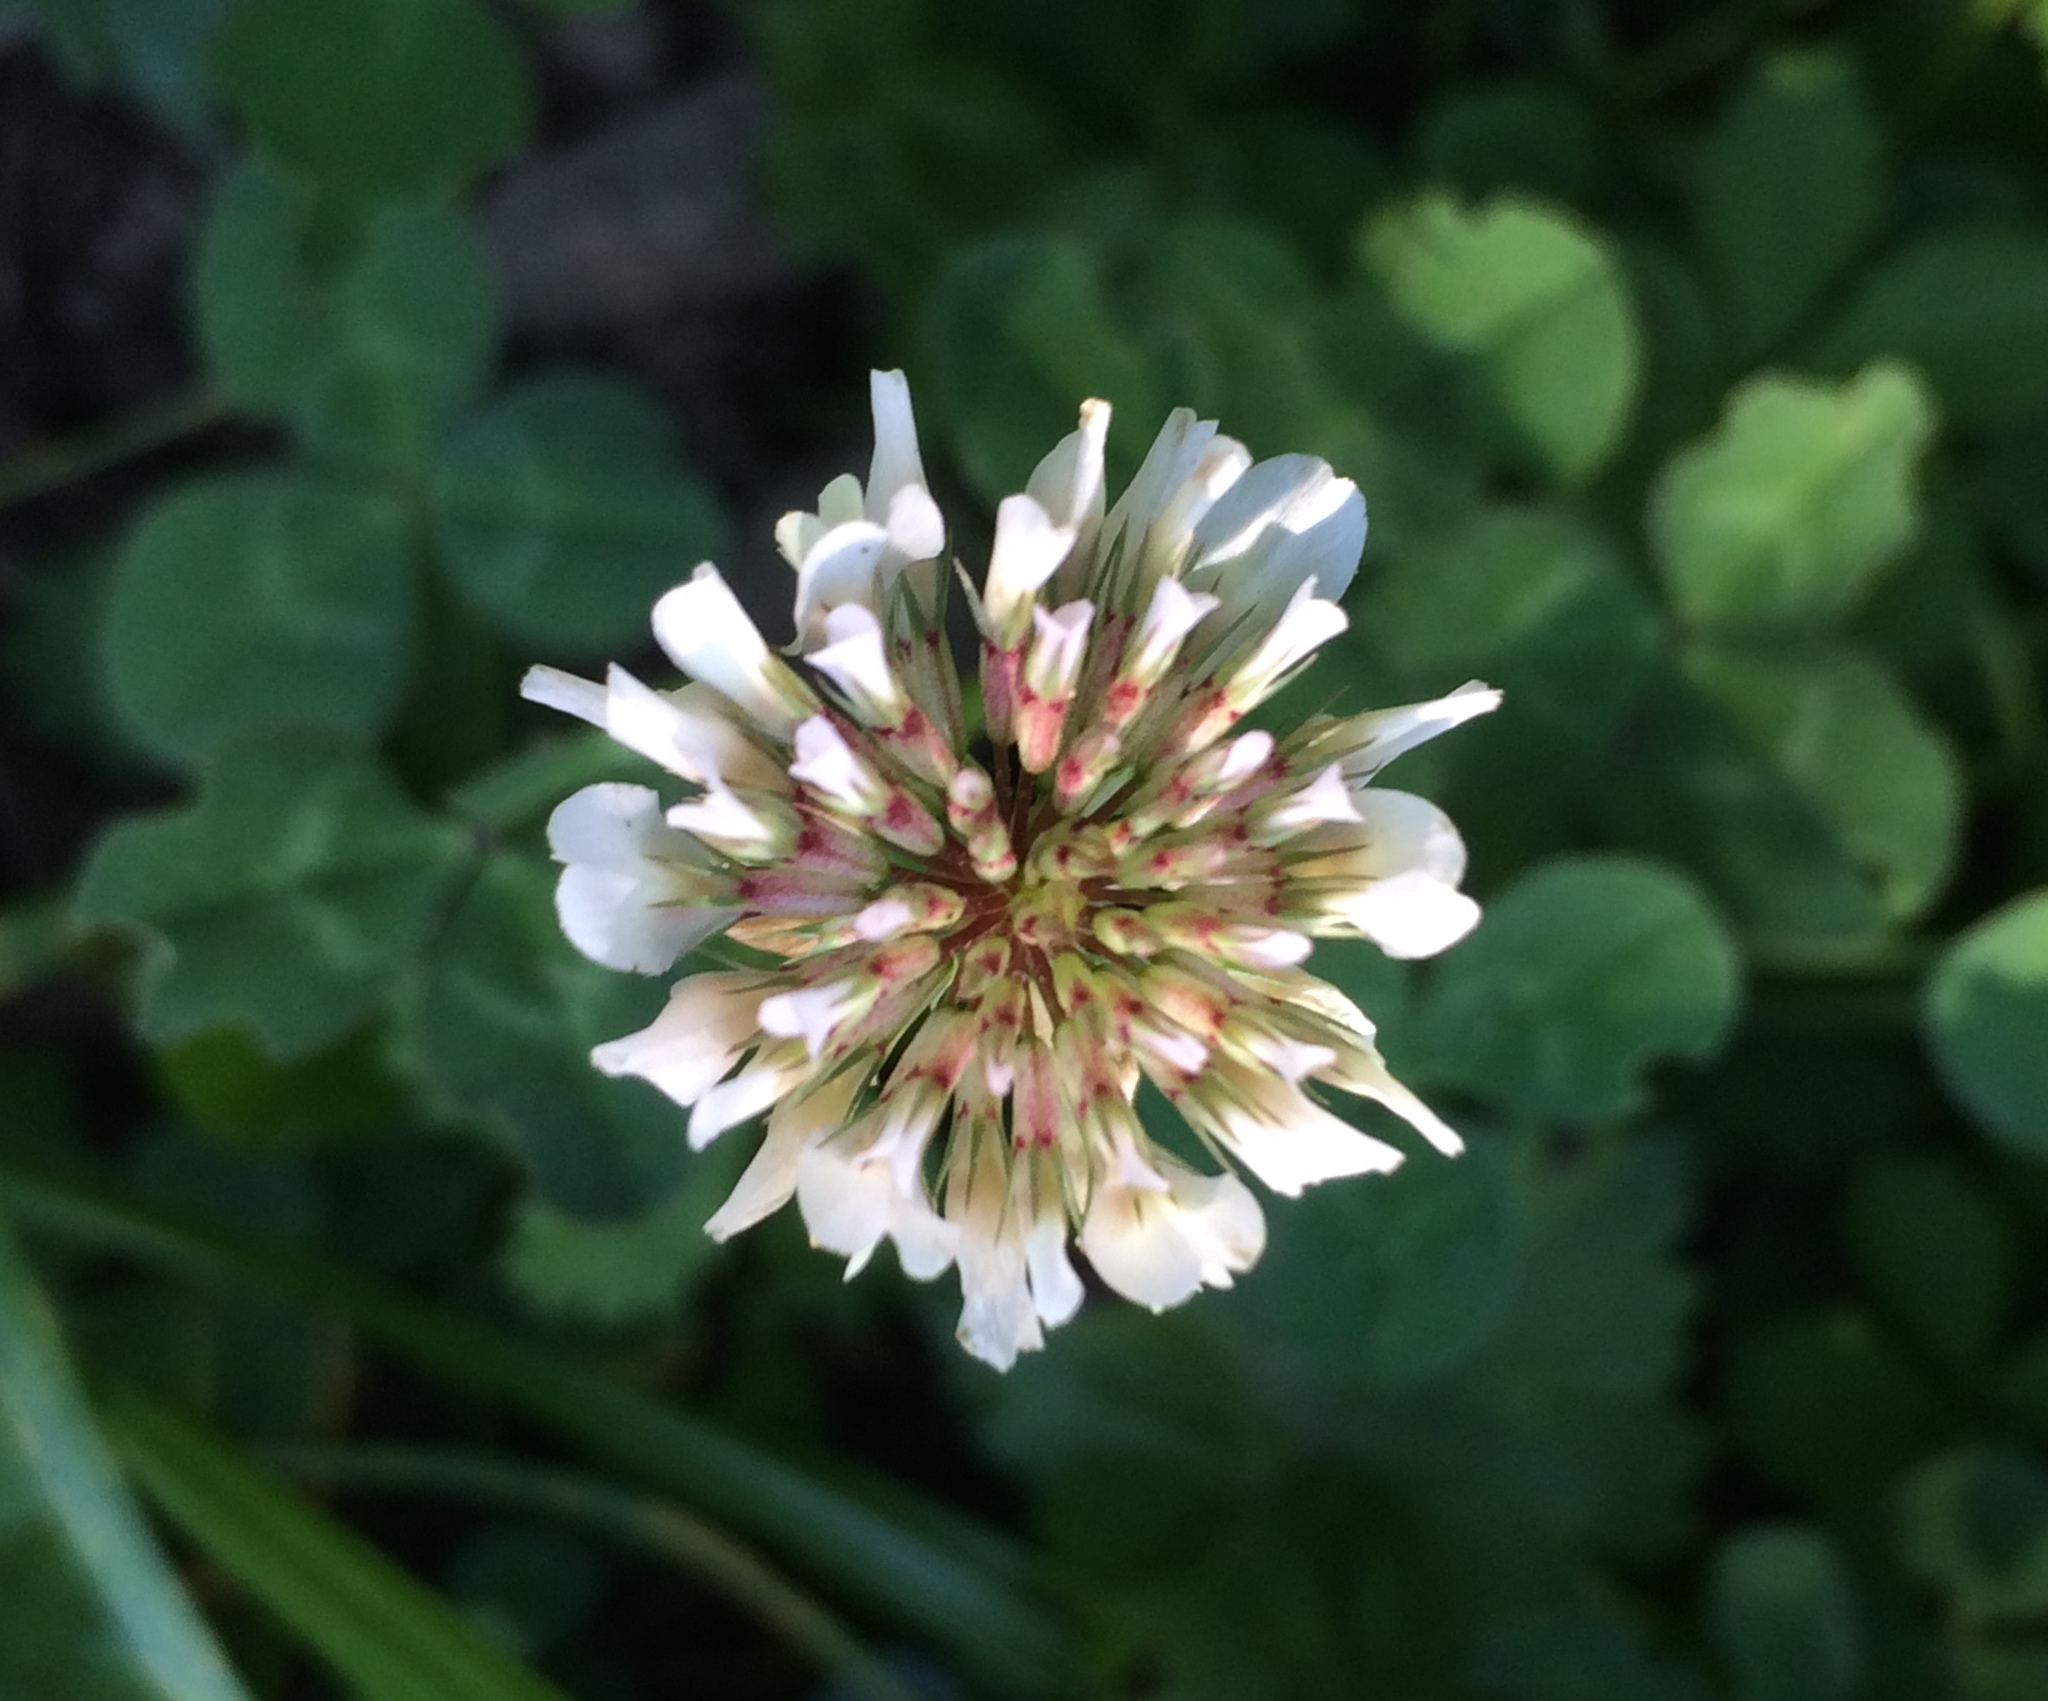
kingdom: Plantae
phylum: Tracheophyta
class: Magnoliopsida
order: Fabales
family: Fabaceae
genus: Trifolium
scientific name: Trifolium repens
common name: White clover
